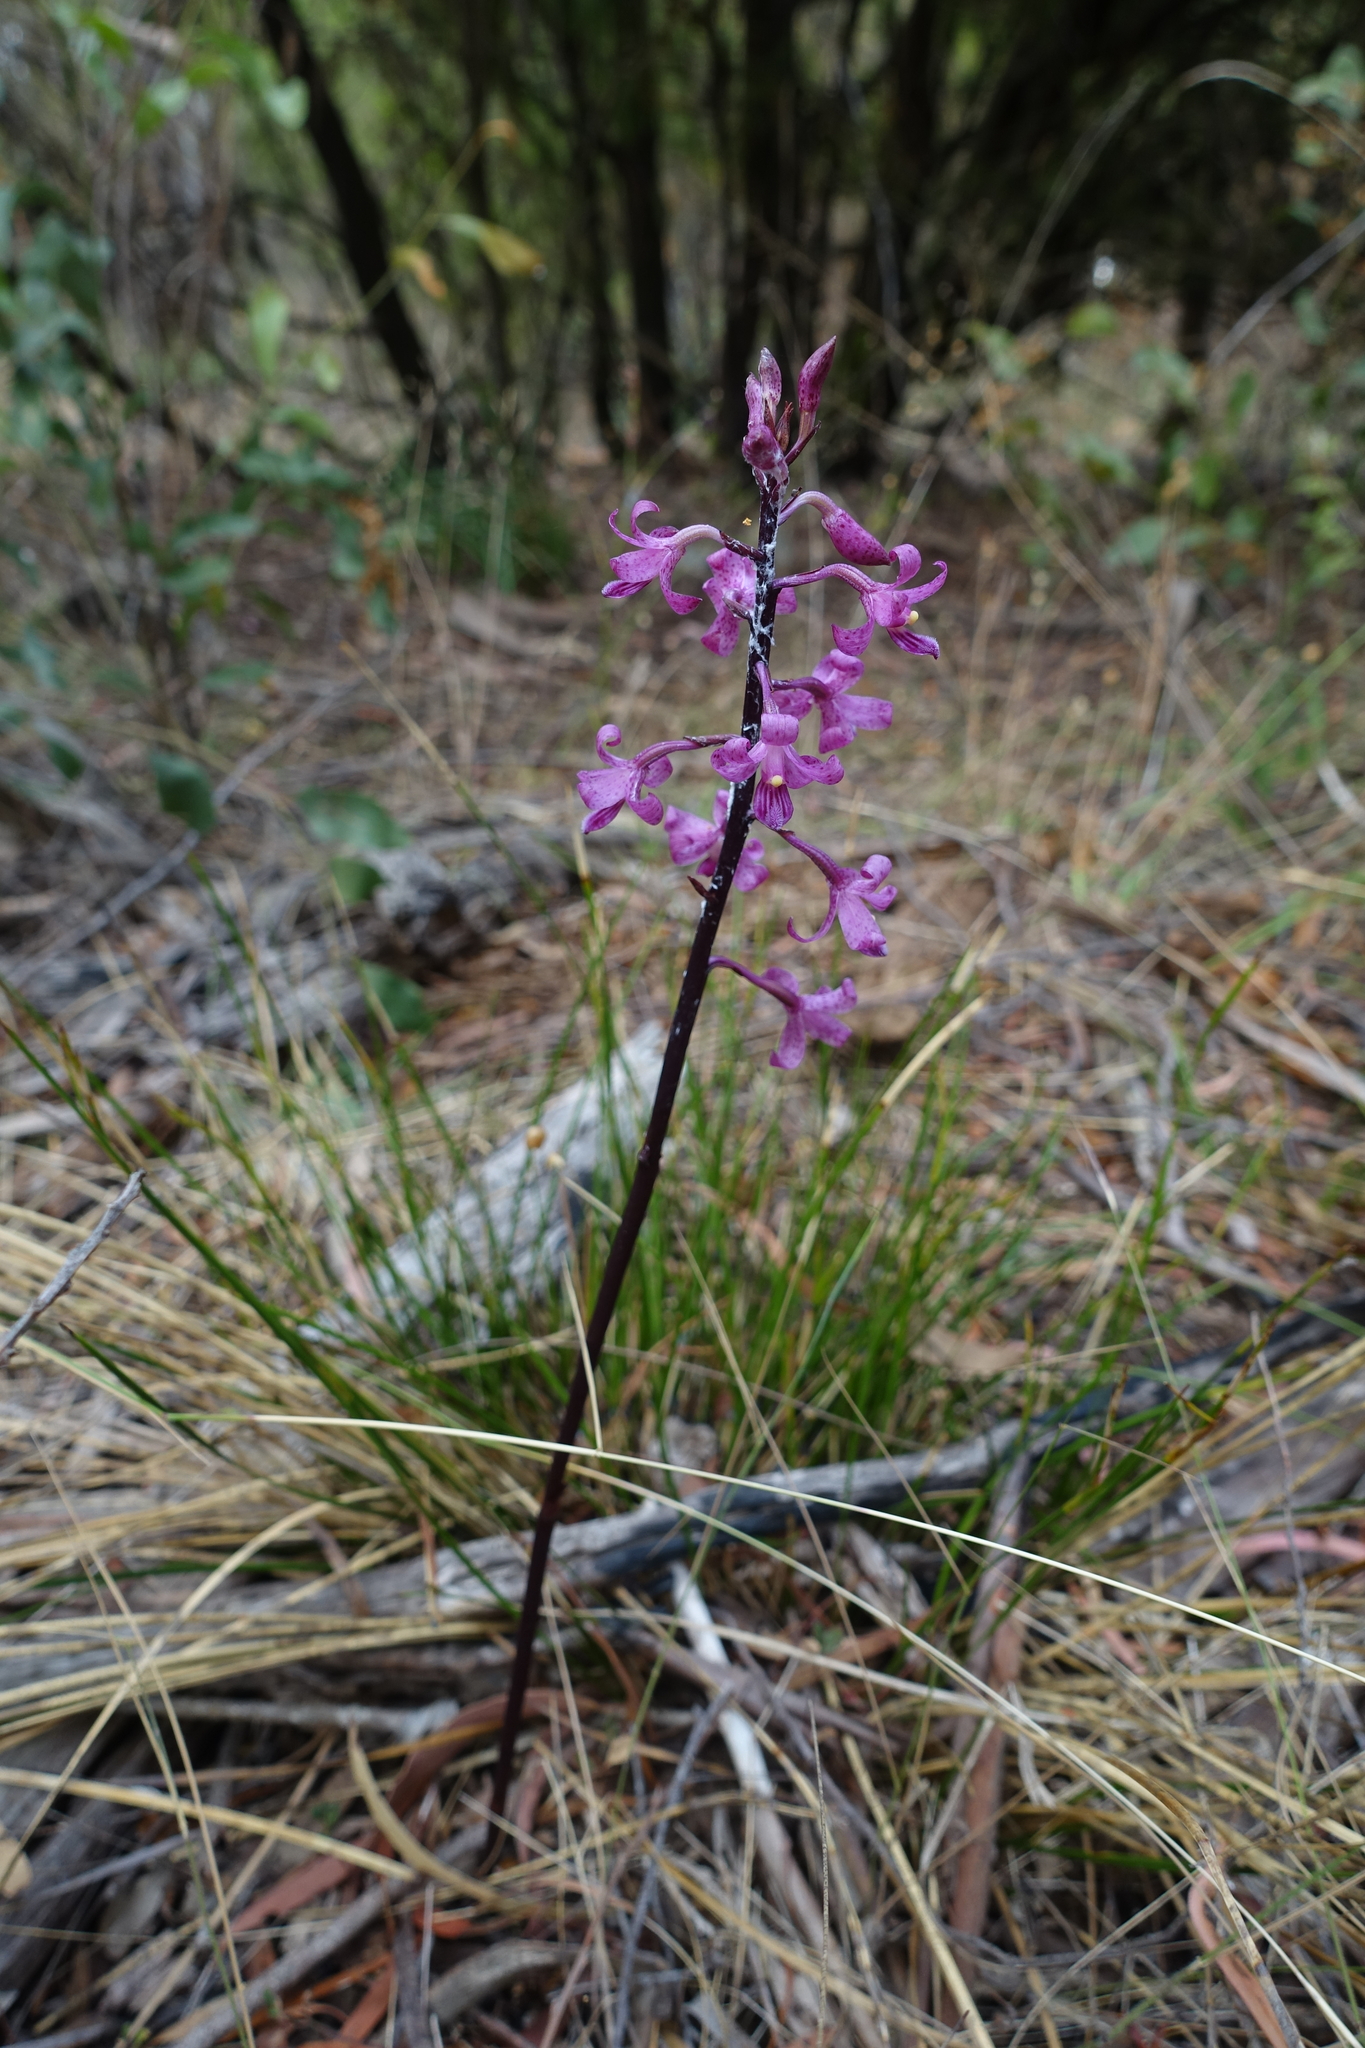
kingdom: Plantae
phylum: Tracheophyta
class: Liliopsida
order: Asparagales
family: Orchidaceae
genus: Dipodium
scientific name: Dipodium roseum
